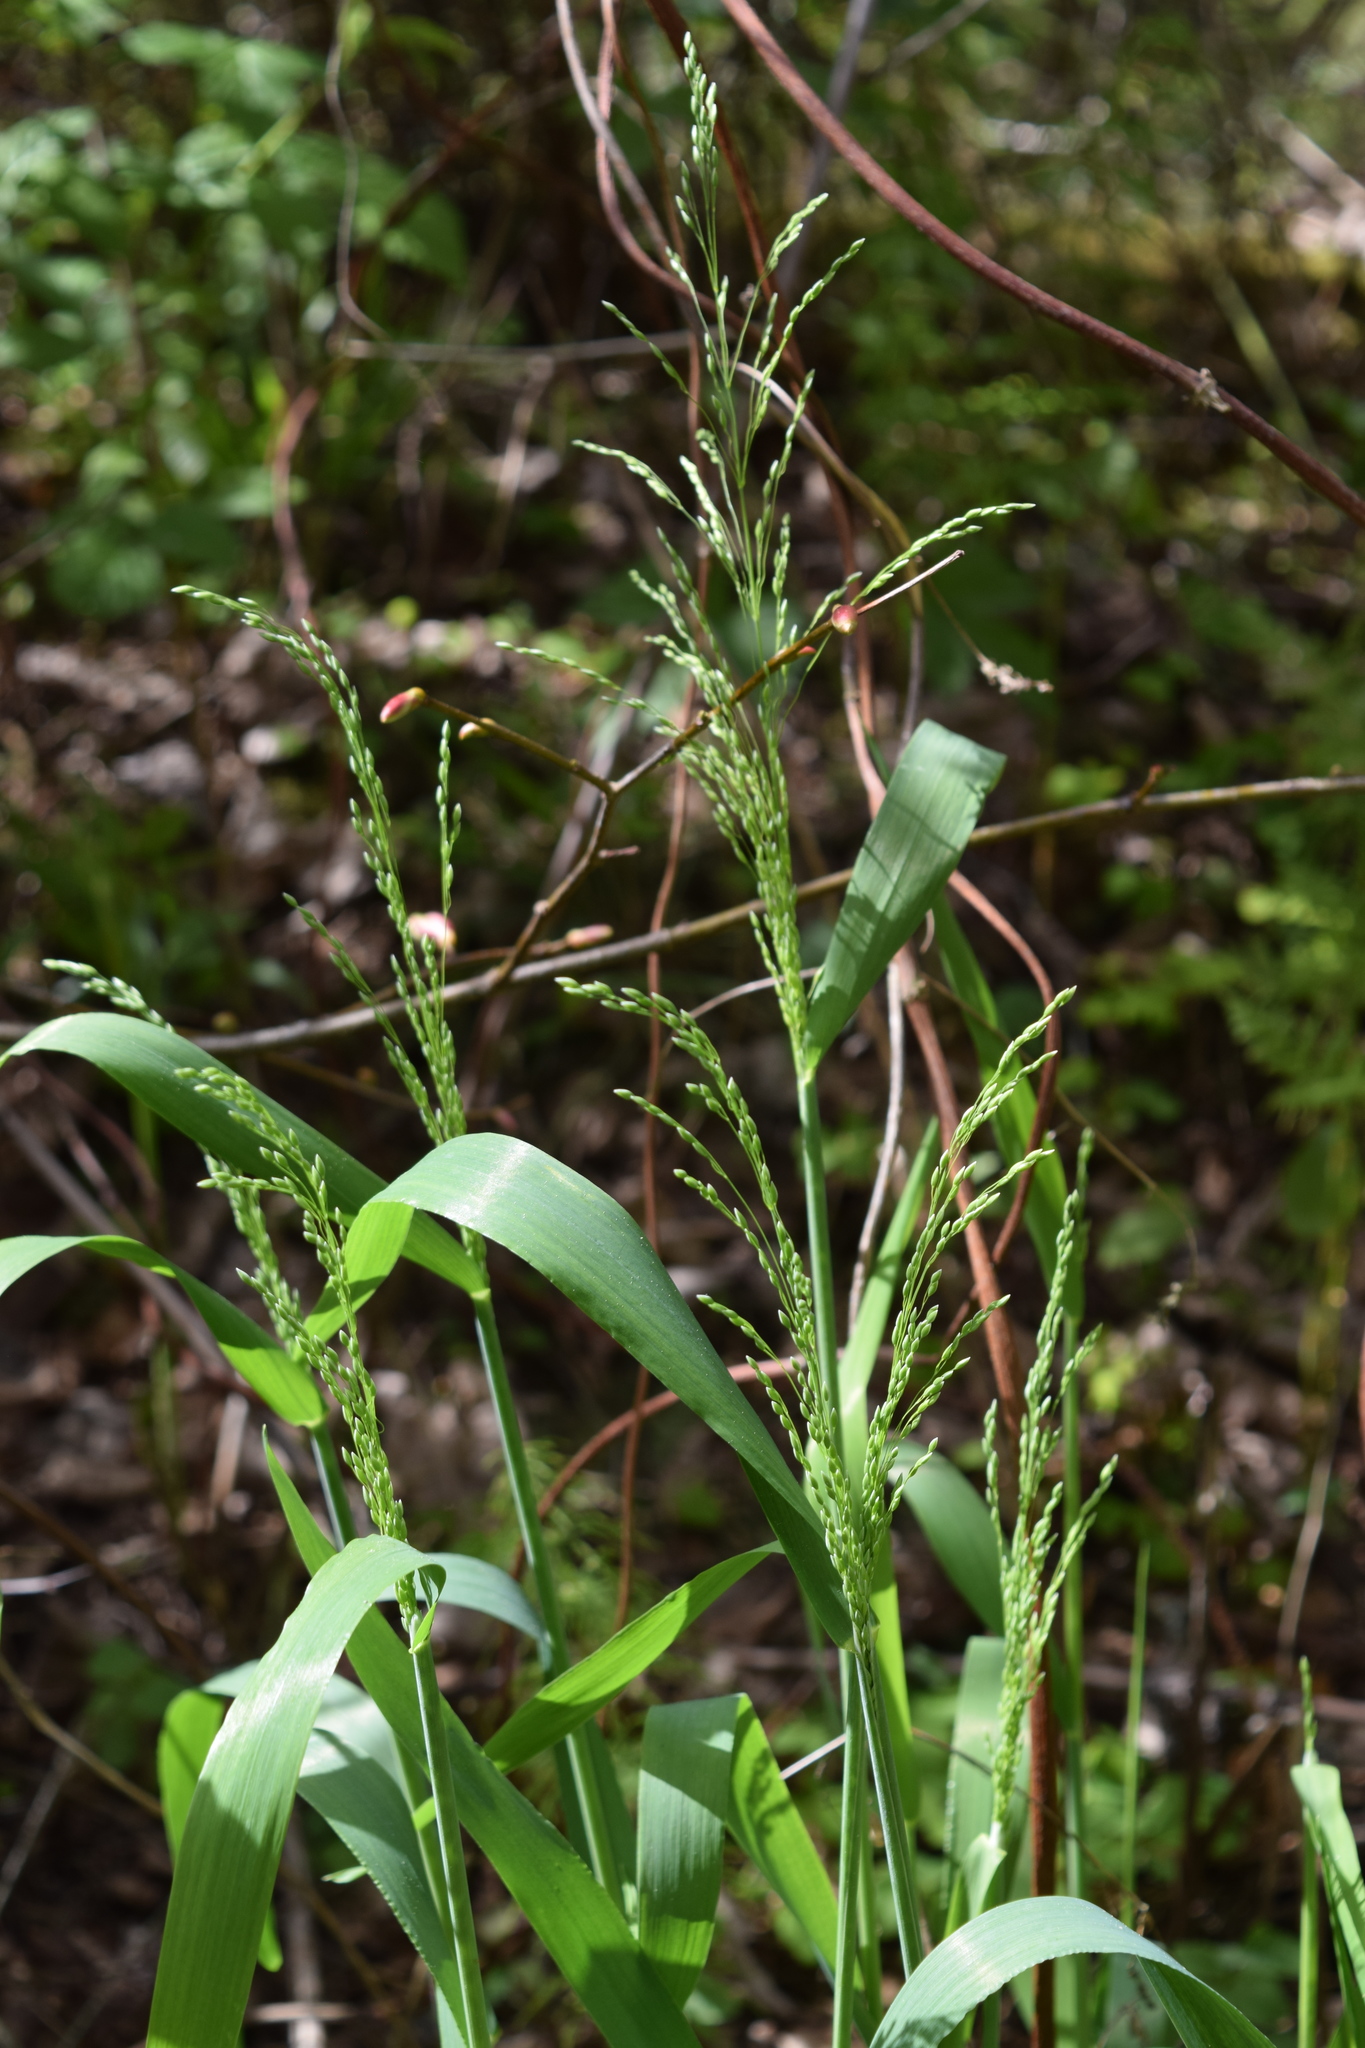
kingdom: Plantae
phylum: Tracheophyta
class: Liliopsida
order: Poales
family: Poaceae
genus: Milium
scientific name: Milium effusum
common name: Wood millet
